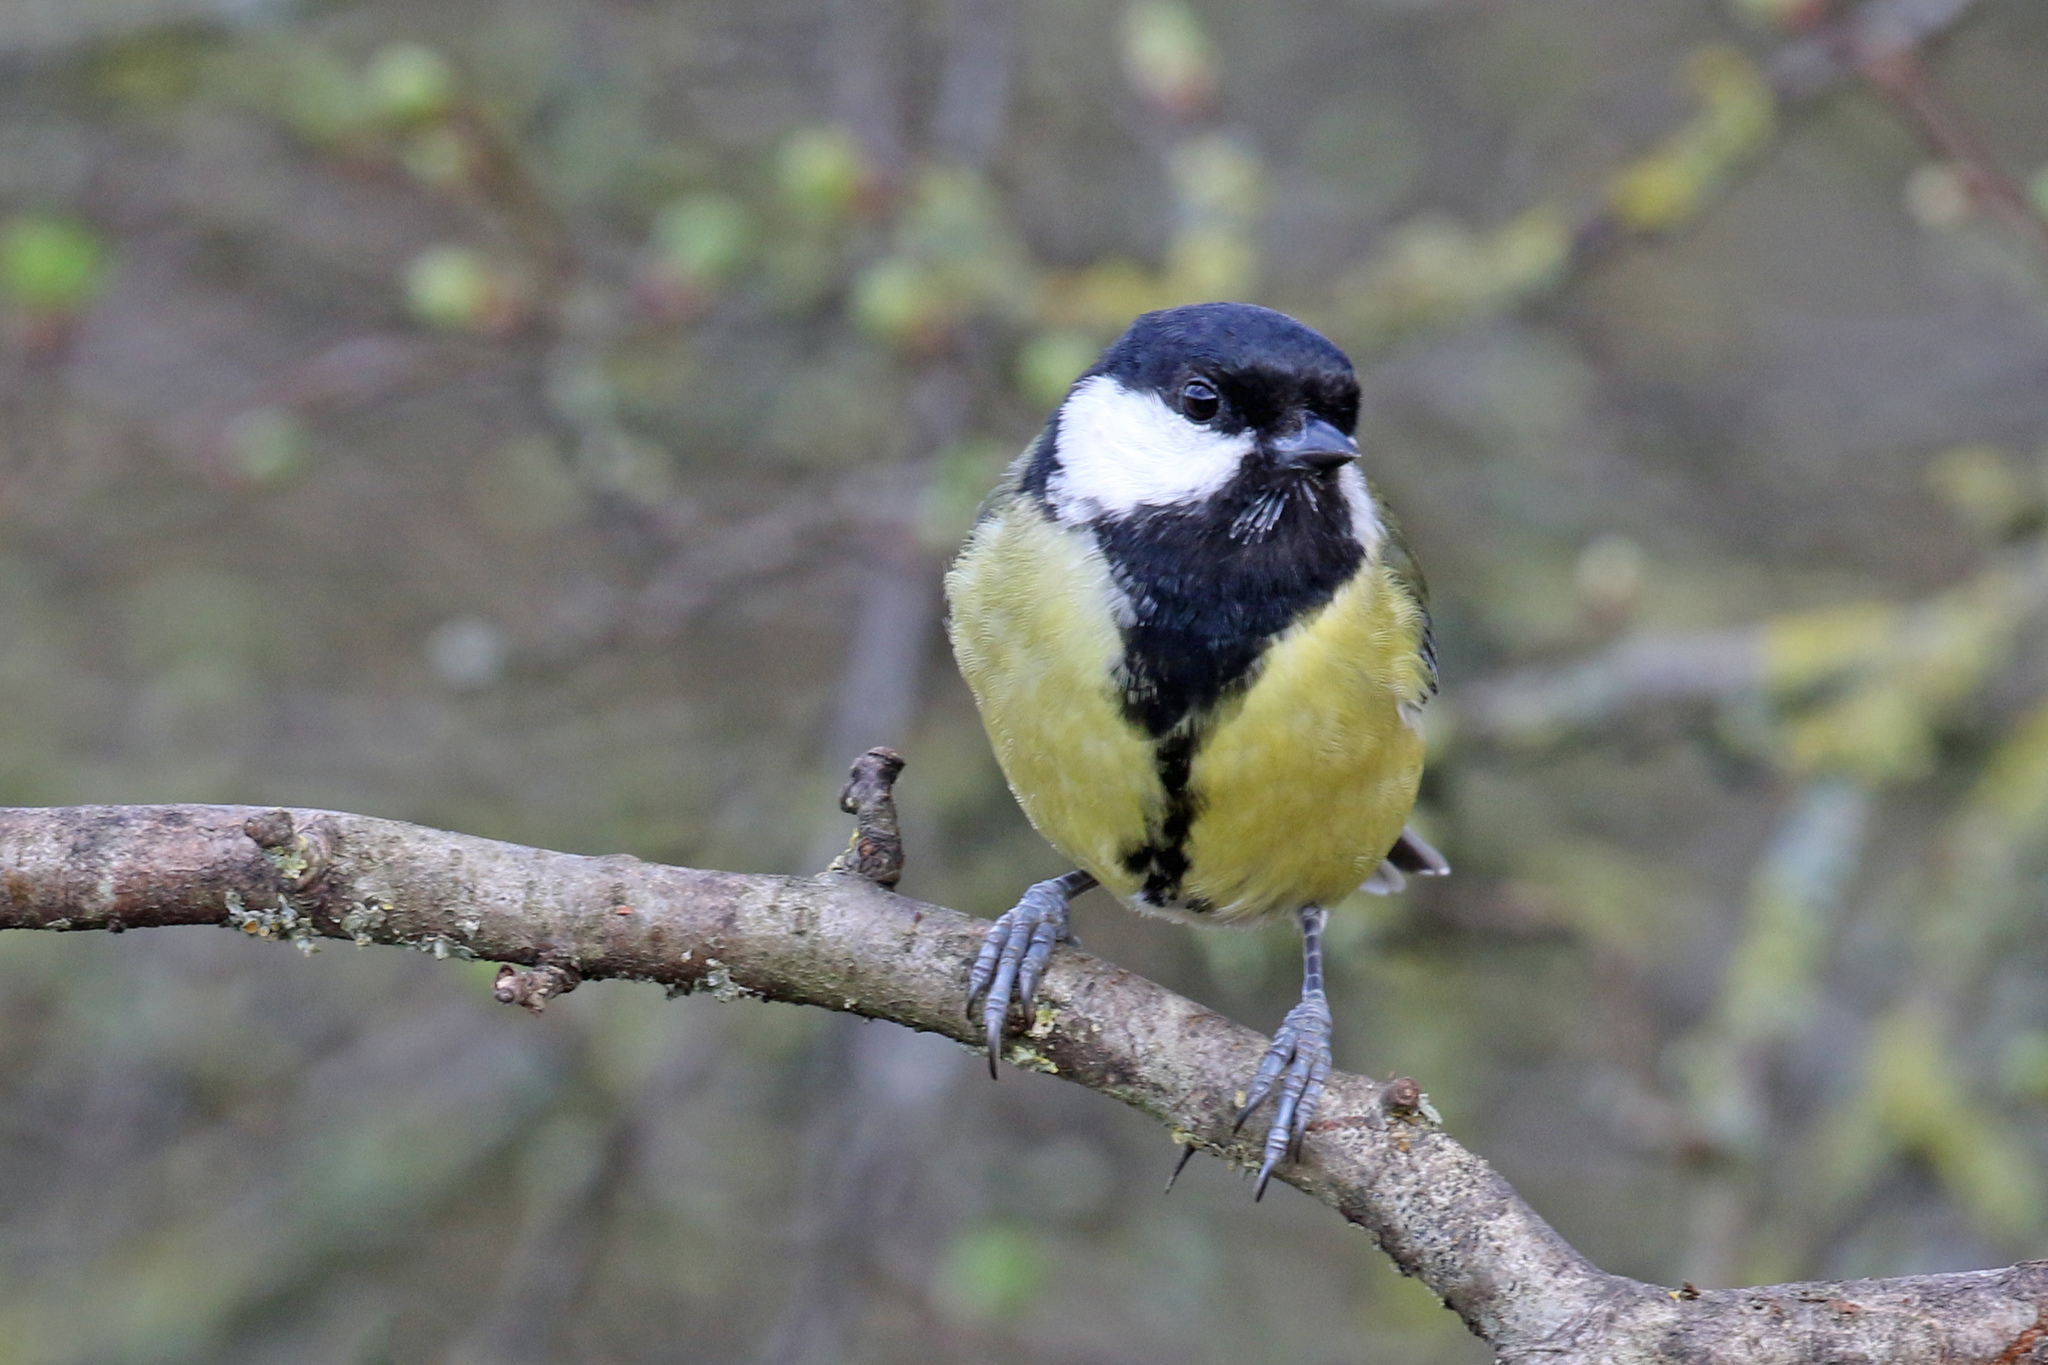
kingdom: Animalia
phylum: Chordata
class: Aves
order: Passeriformes
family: Paridae
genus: Parus
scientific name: Parus major
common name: Great tit
